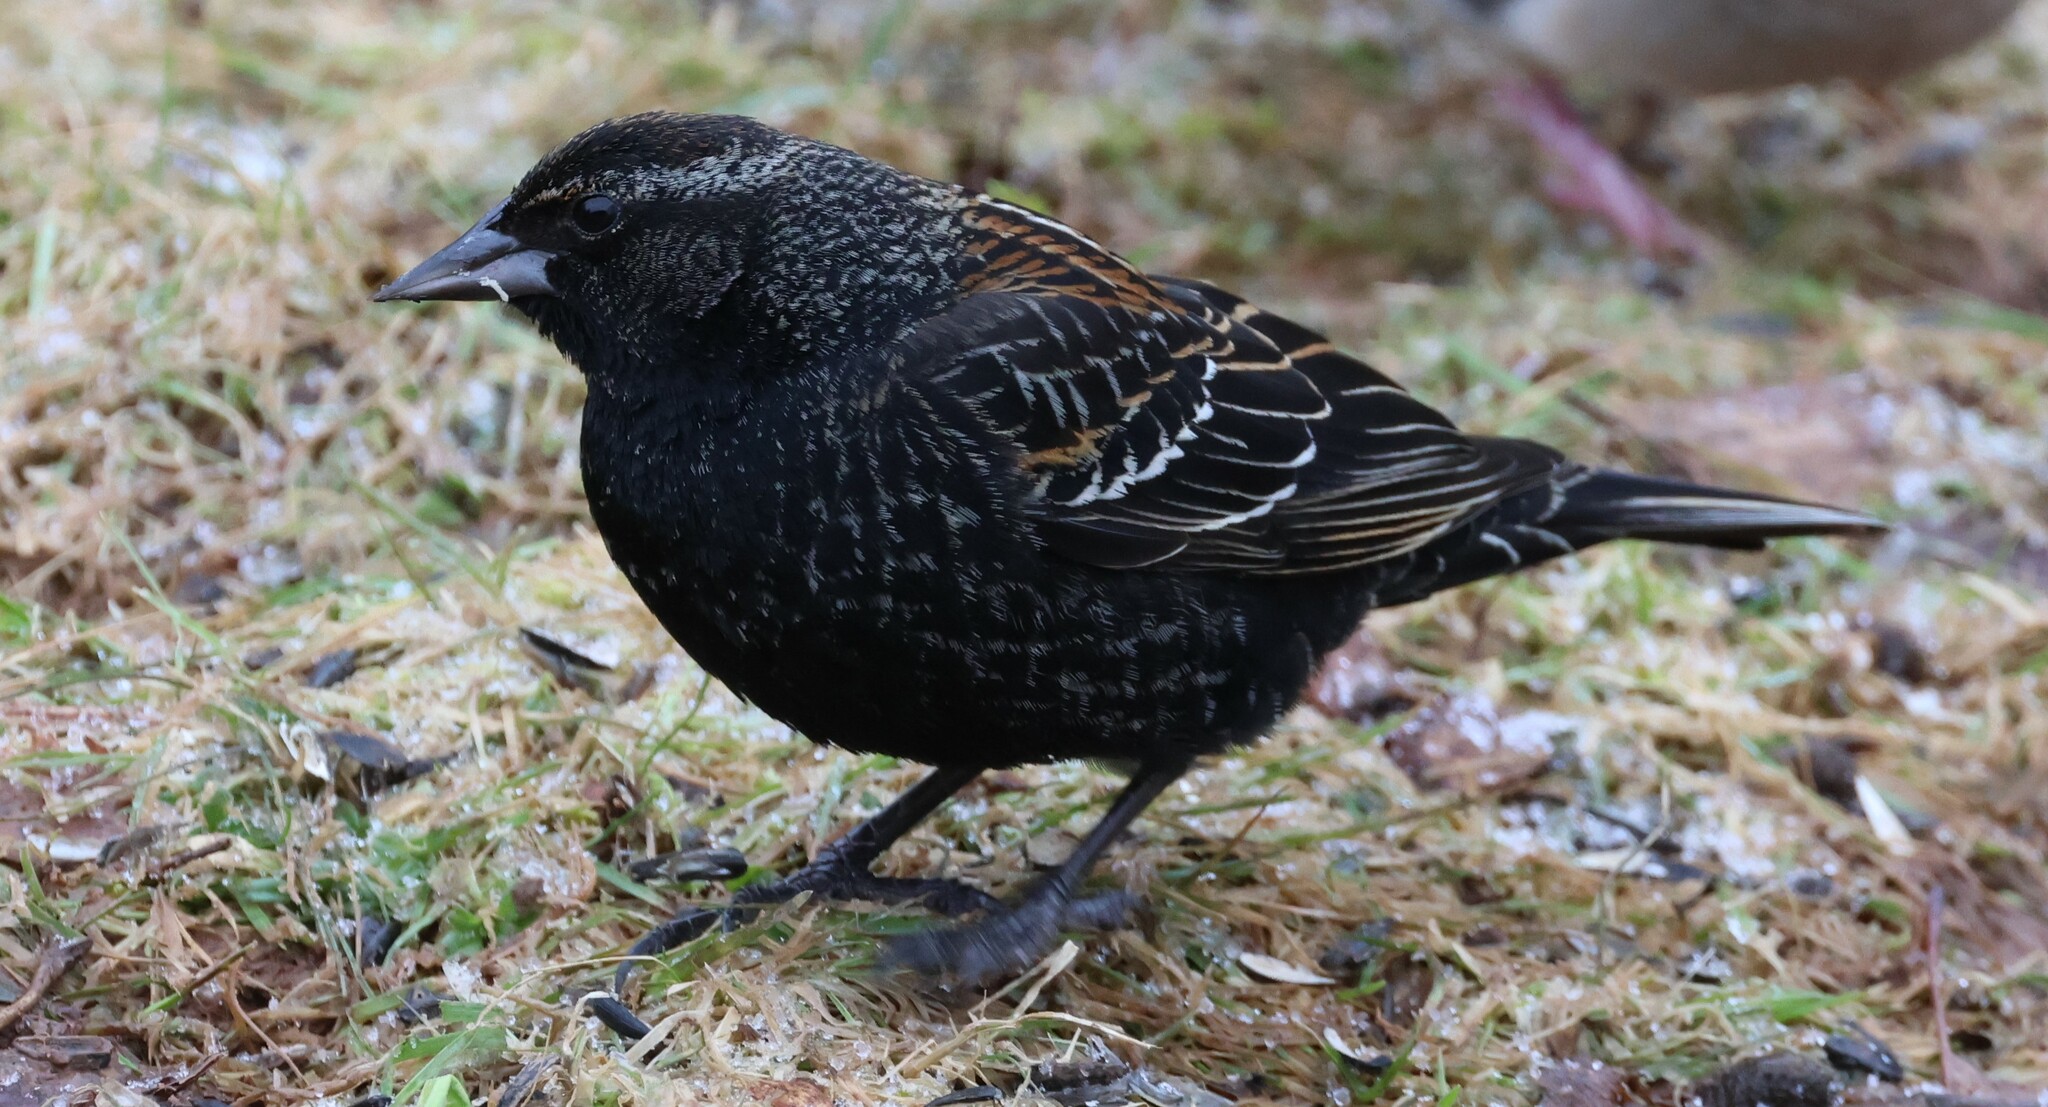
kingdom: Animalia
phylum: Chordata
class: Aves
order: Passeriformes
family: Icteridae
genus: Agelaius
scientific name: Agelaius phoeniceus
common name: Red-winged blackbird
